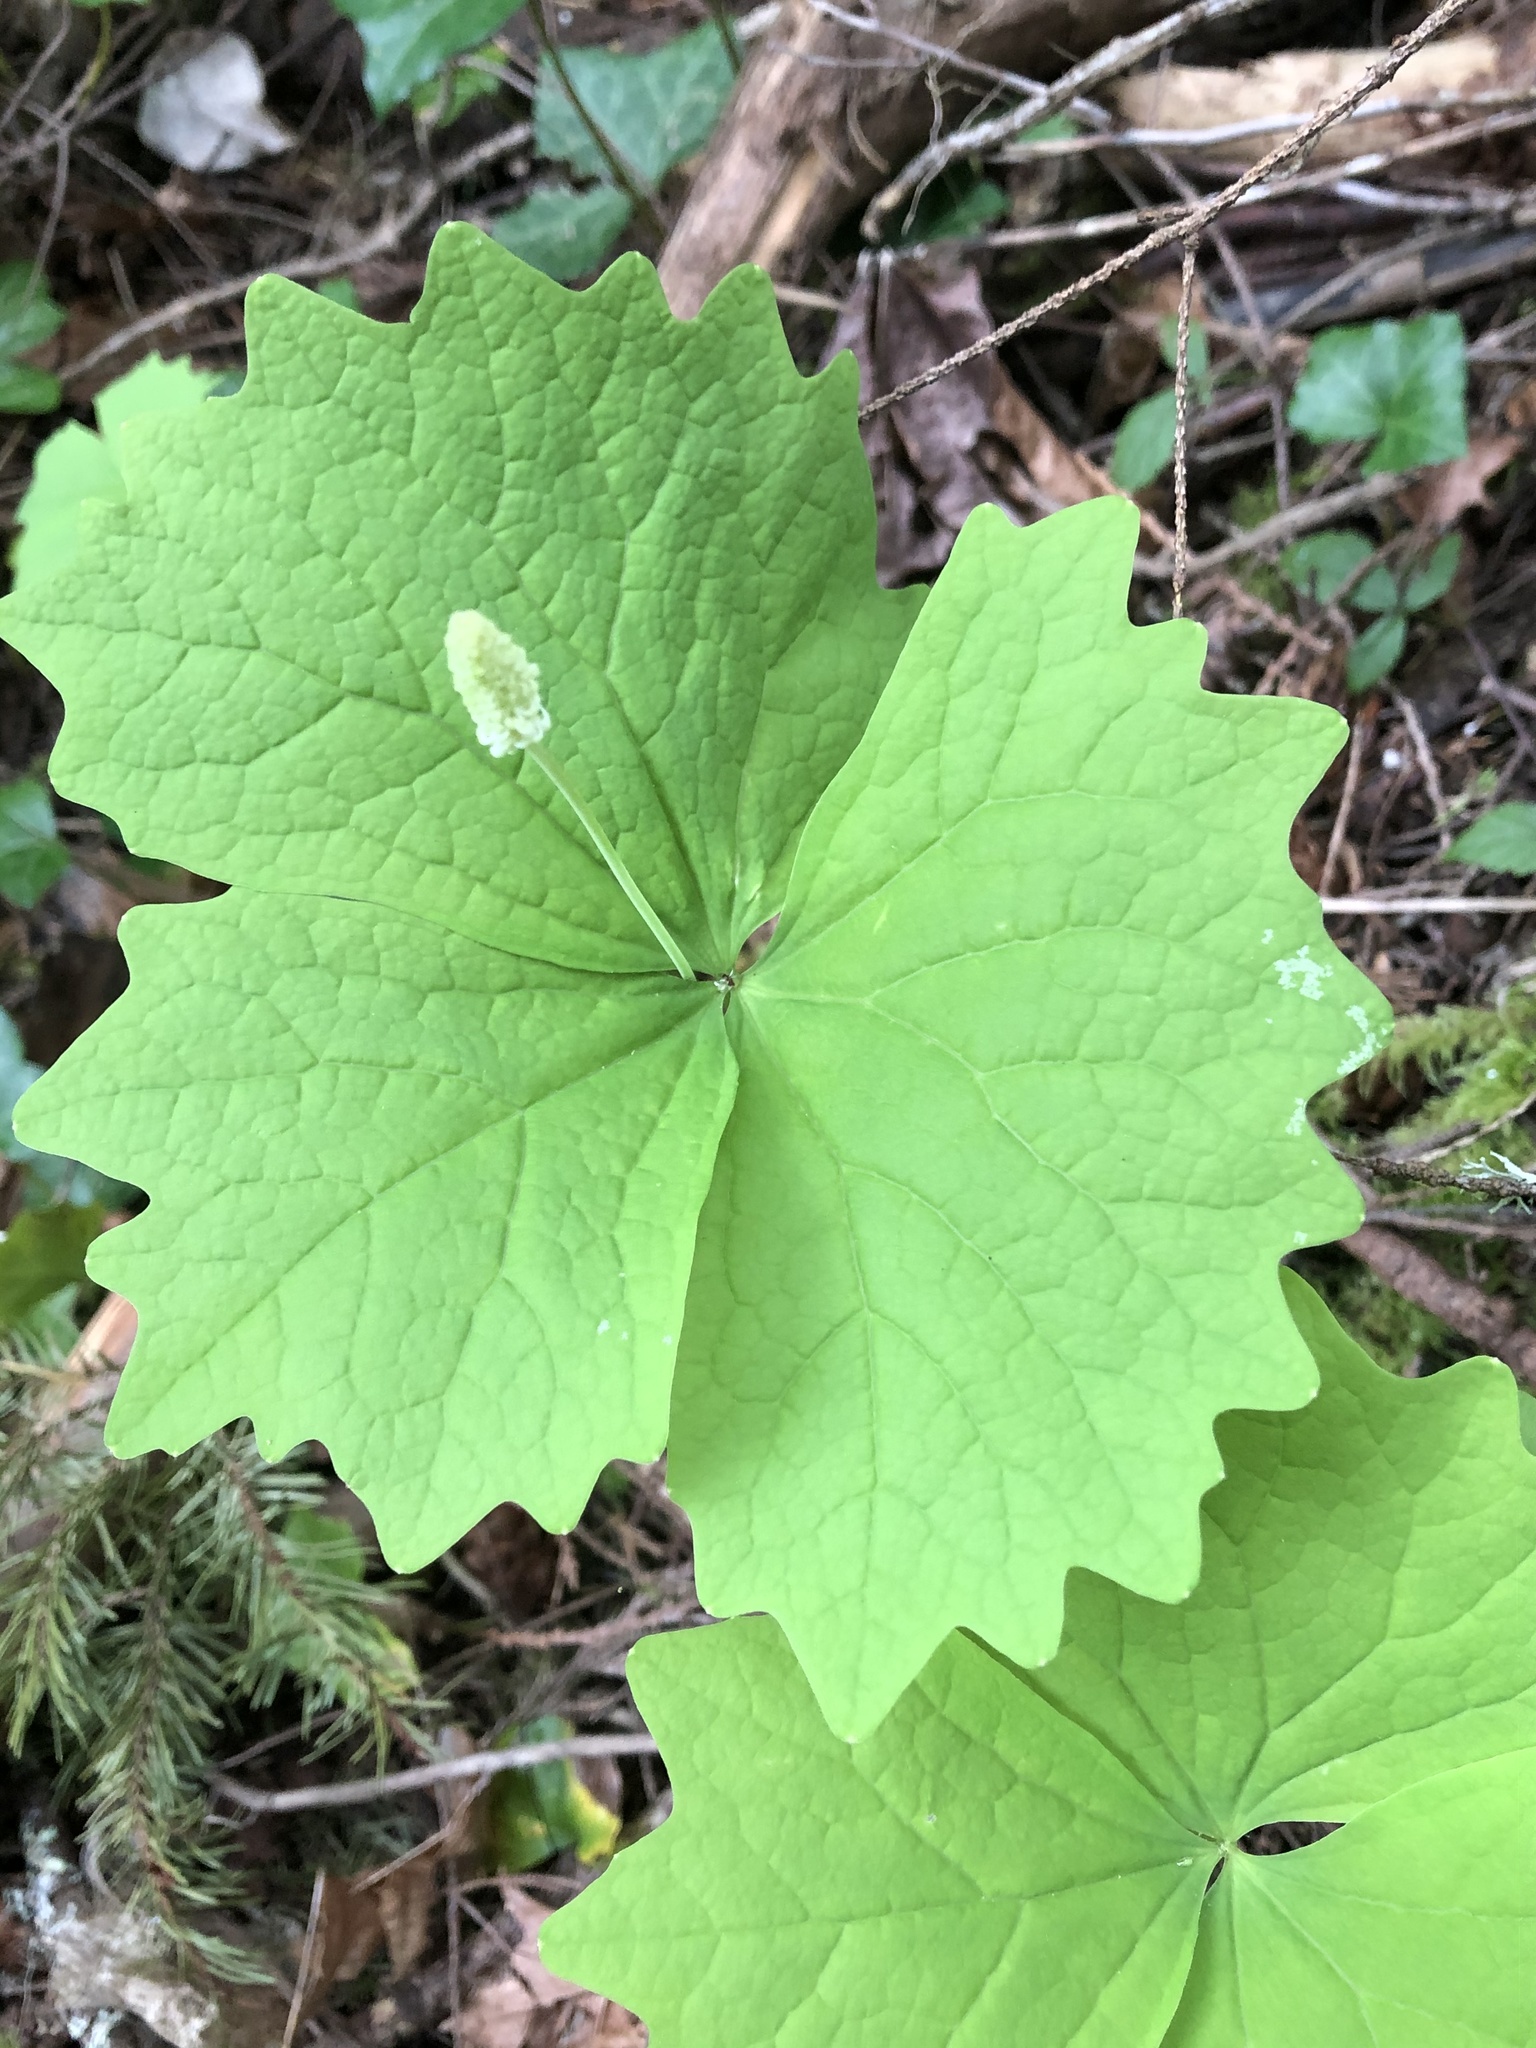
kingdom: Plantae
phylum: Tracheophyta
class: Magnoliopsida
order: Ranunculales
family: Berberidaceae
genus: Achlys
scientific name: Achlys californica
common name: California deer-foot
